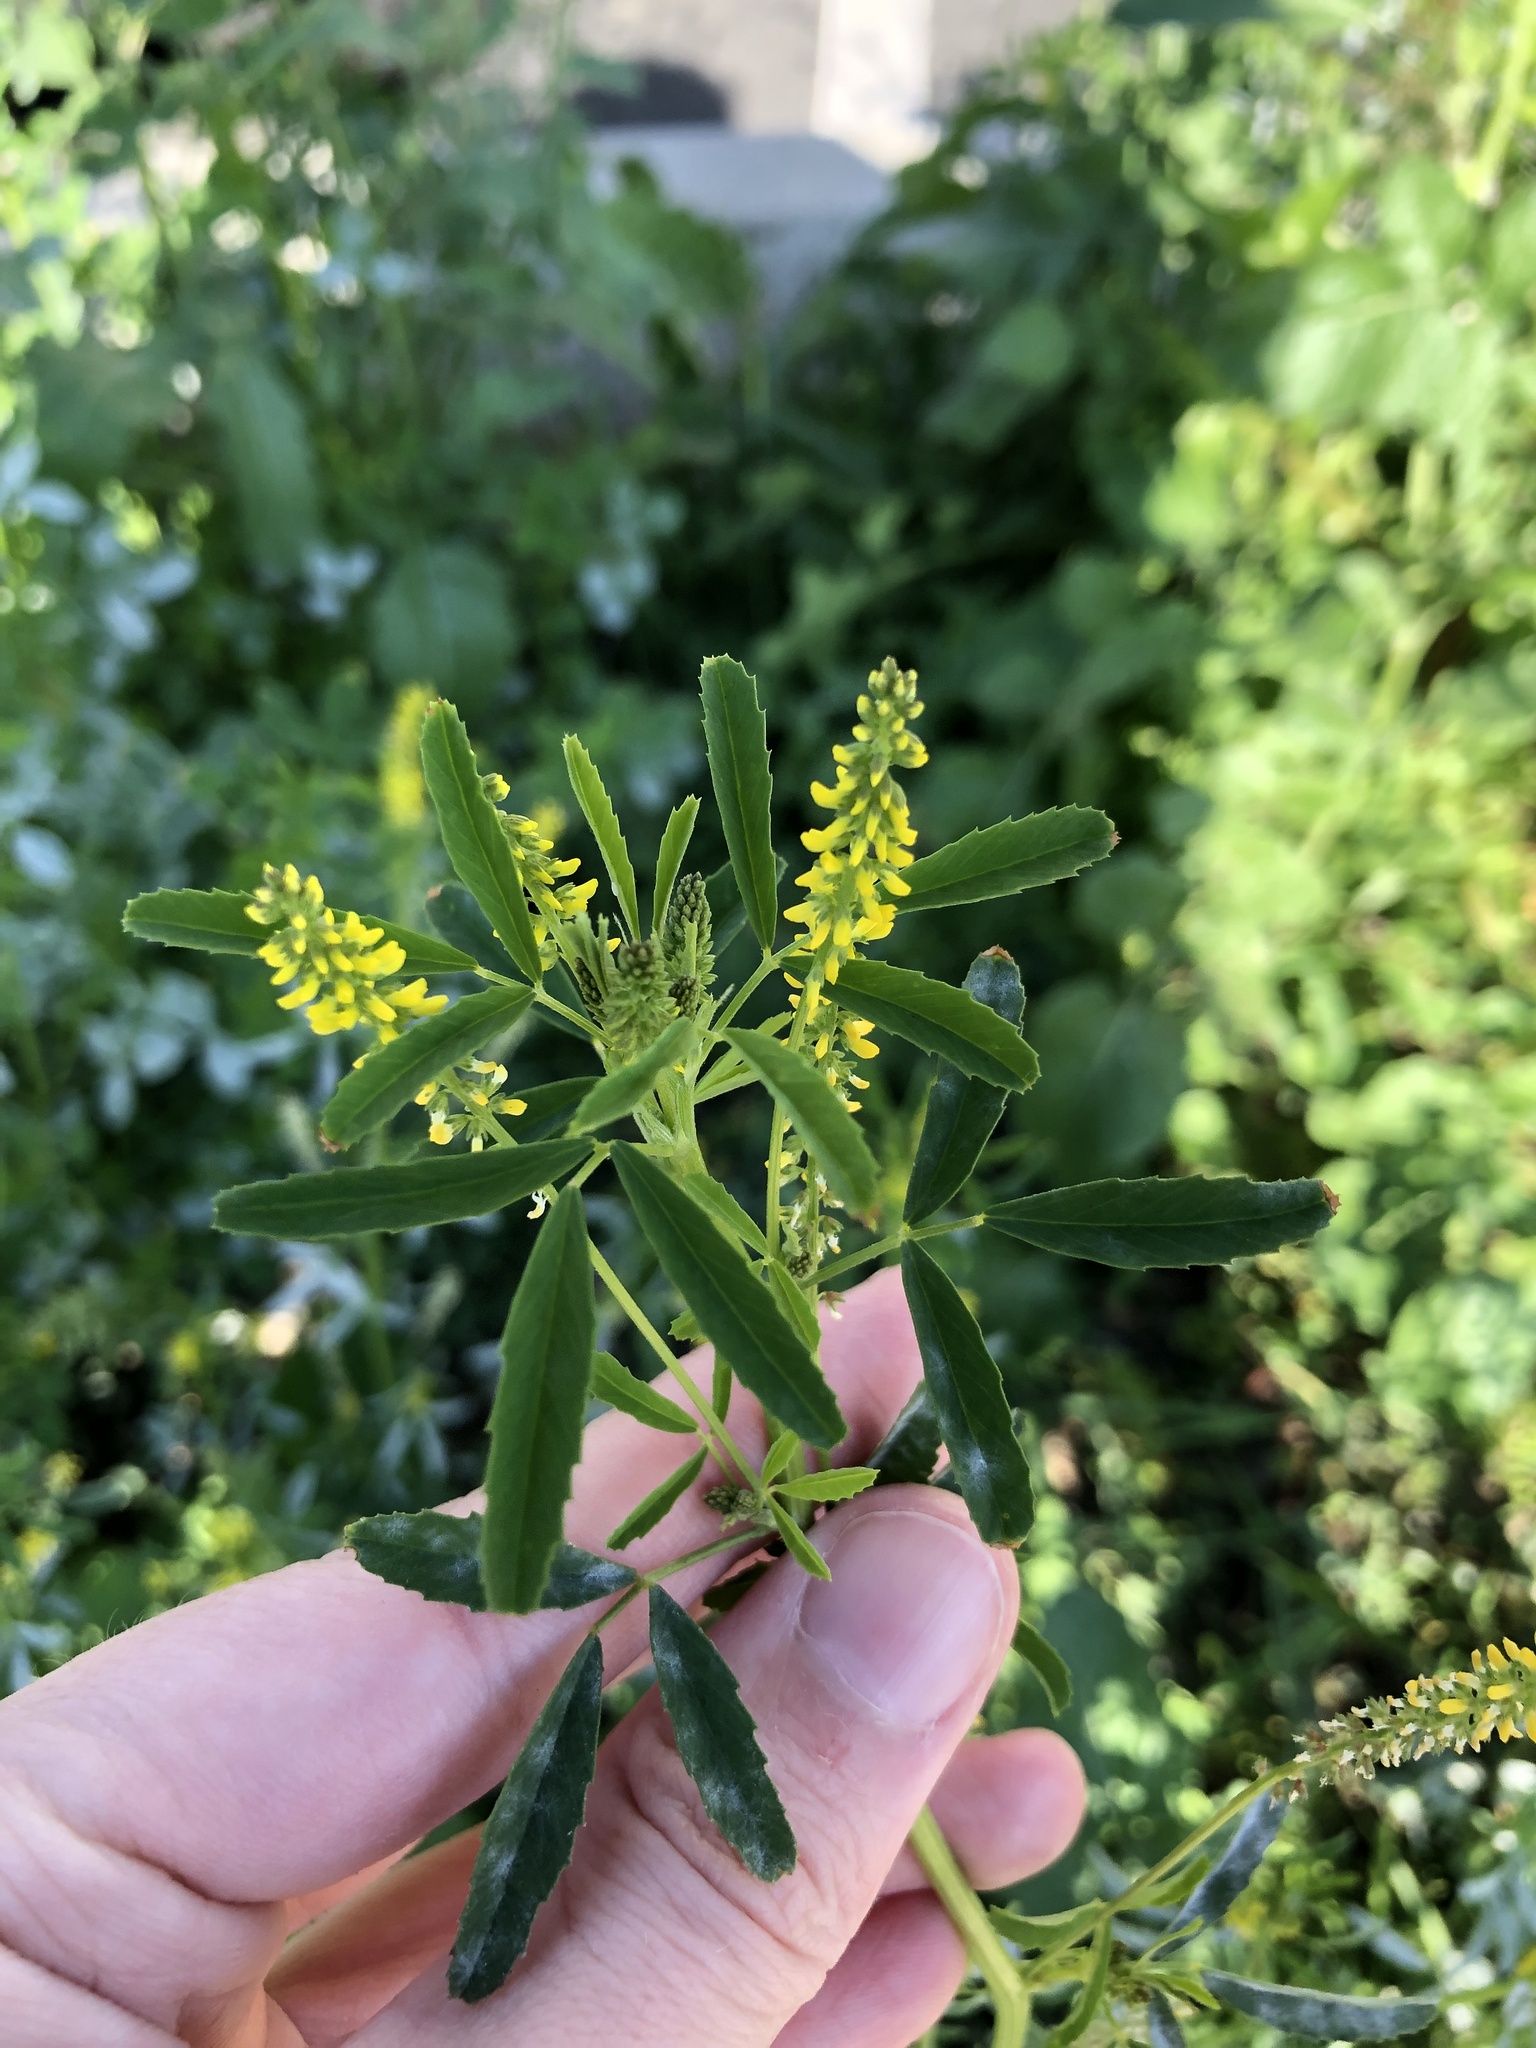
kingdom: Plantae
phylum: Tracheophyta
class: Magnoliopsida
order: Fabales
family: Fabaceae
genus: Melilotus
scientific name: Melilotus indicus
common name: Small melilot
